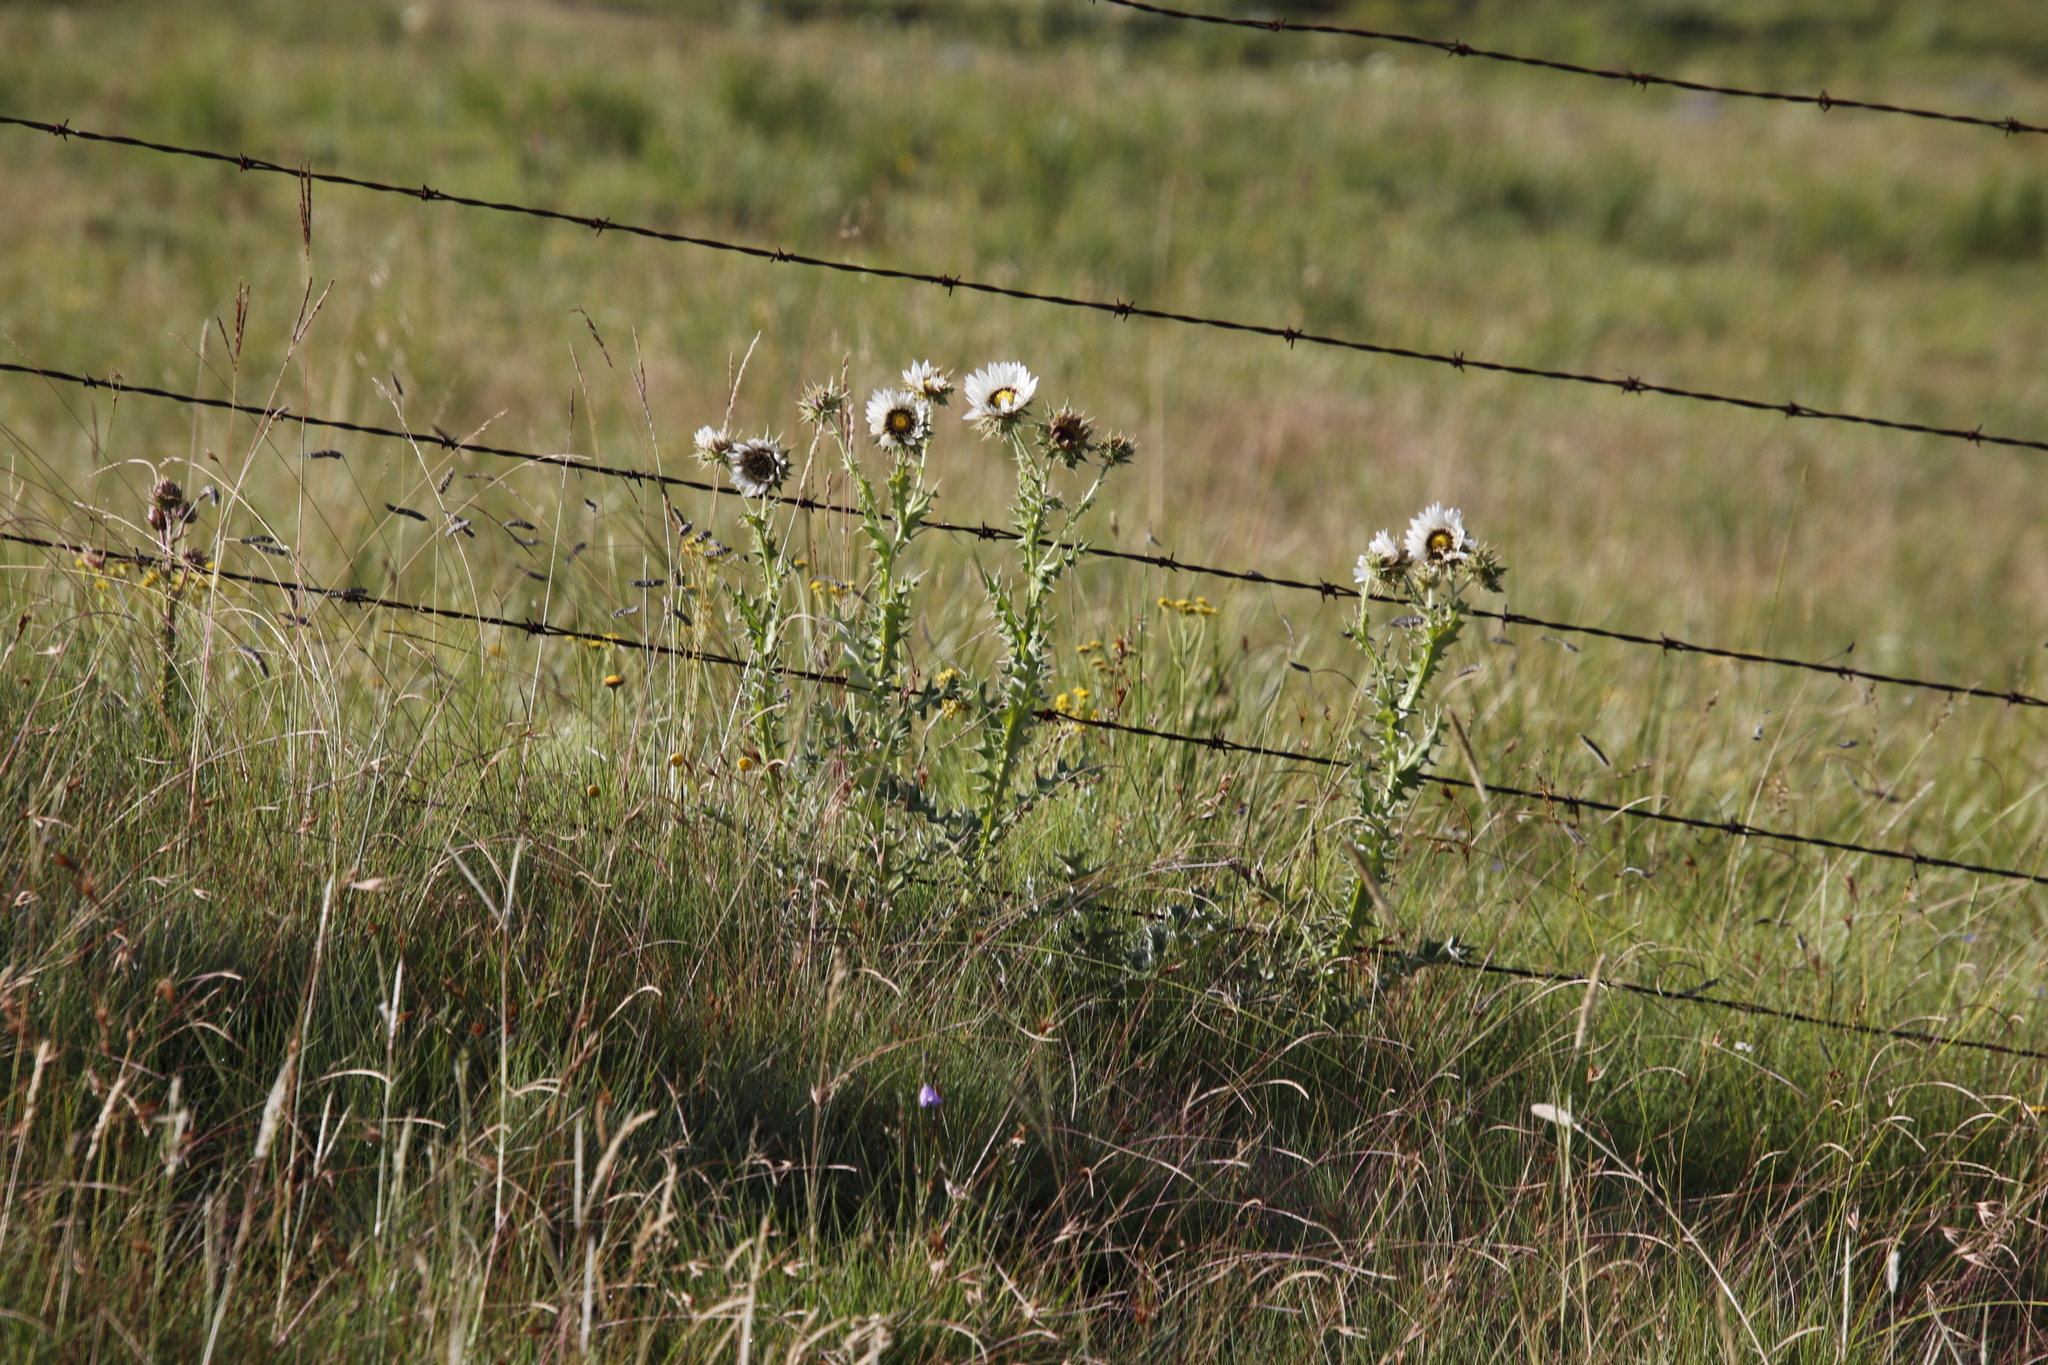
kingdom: Plantae
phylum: Tracheophyta
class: Magnoliopsida
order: Asterales
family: Asteraceae
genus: Berkheya
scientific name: Berkheya cirsiifolia
